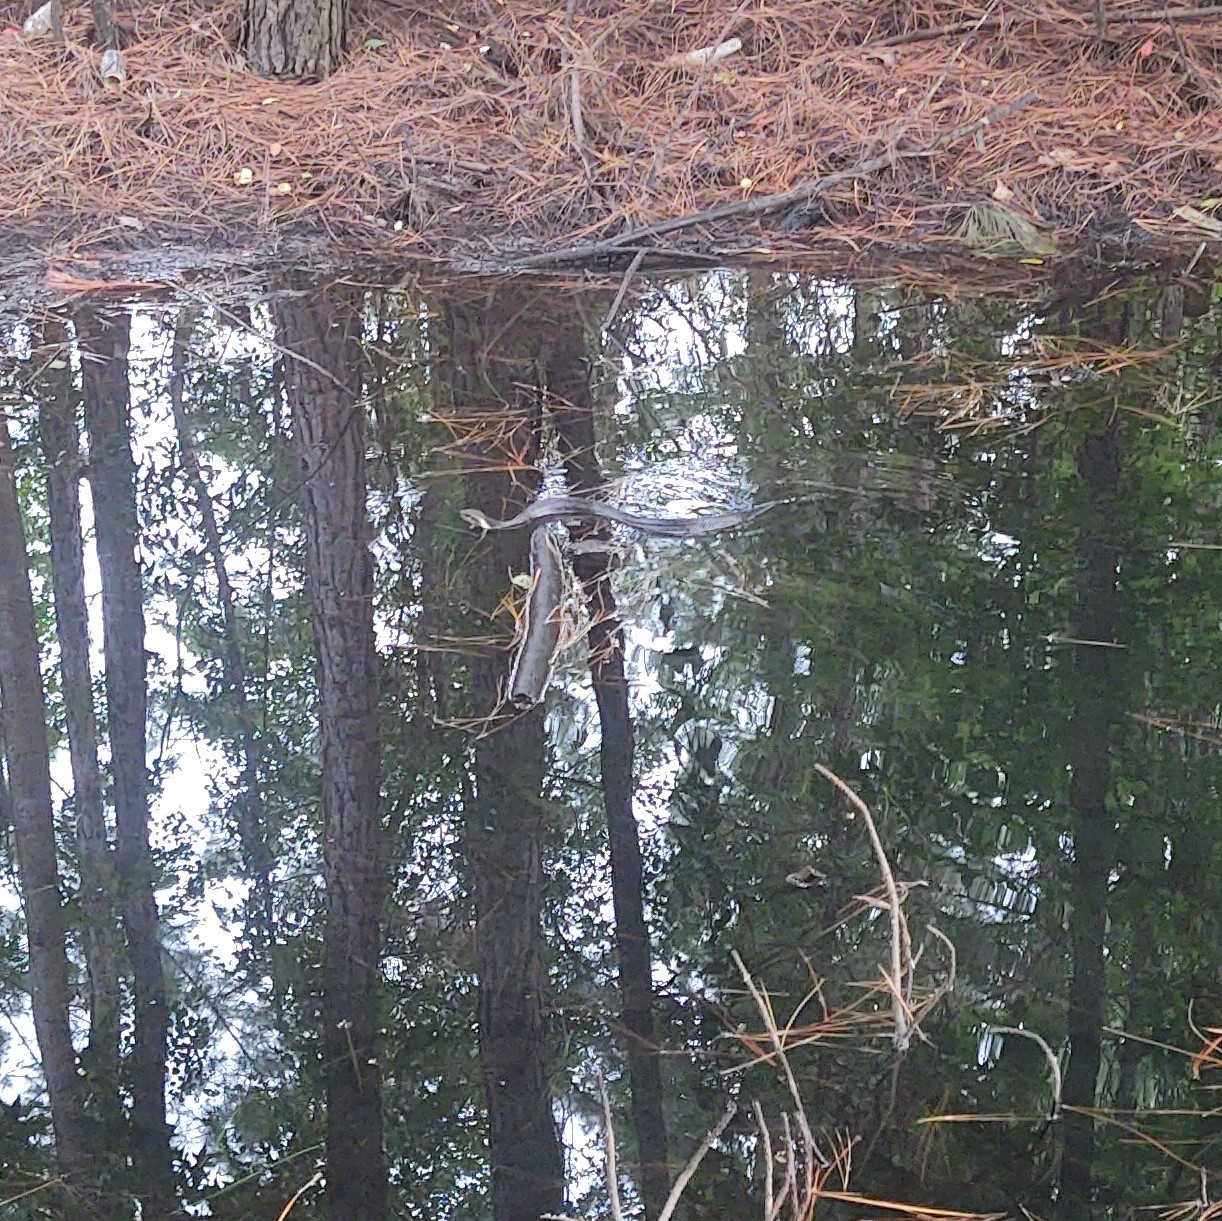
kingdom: Animalia
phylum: Chordata
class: Squamata
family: Viperidae
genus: Agkistrodon
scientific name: Agkistrodon conanti
